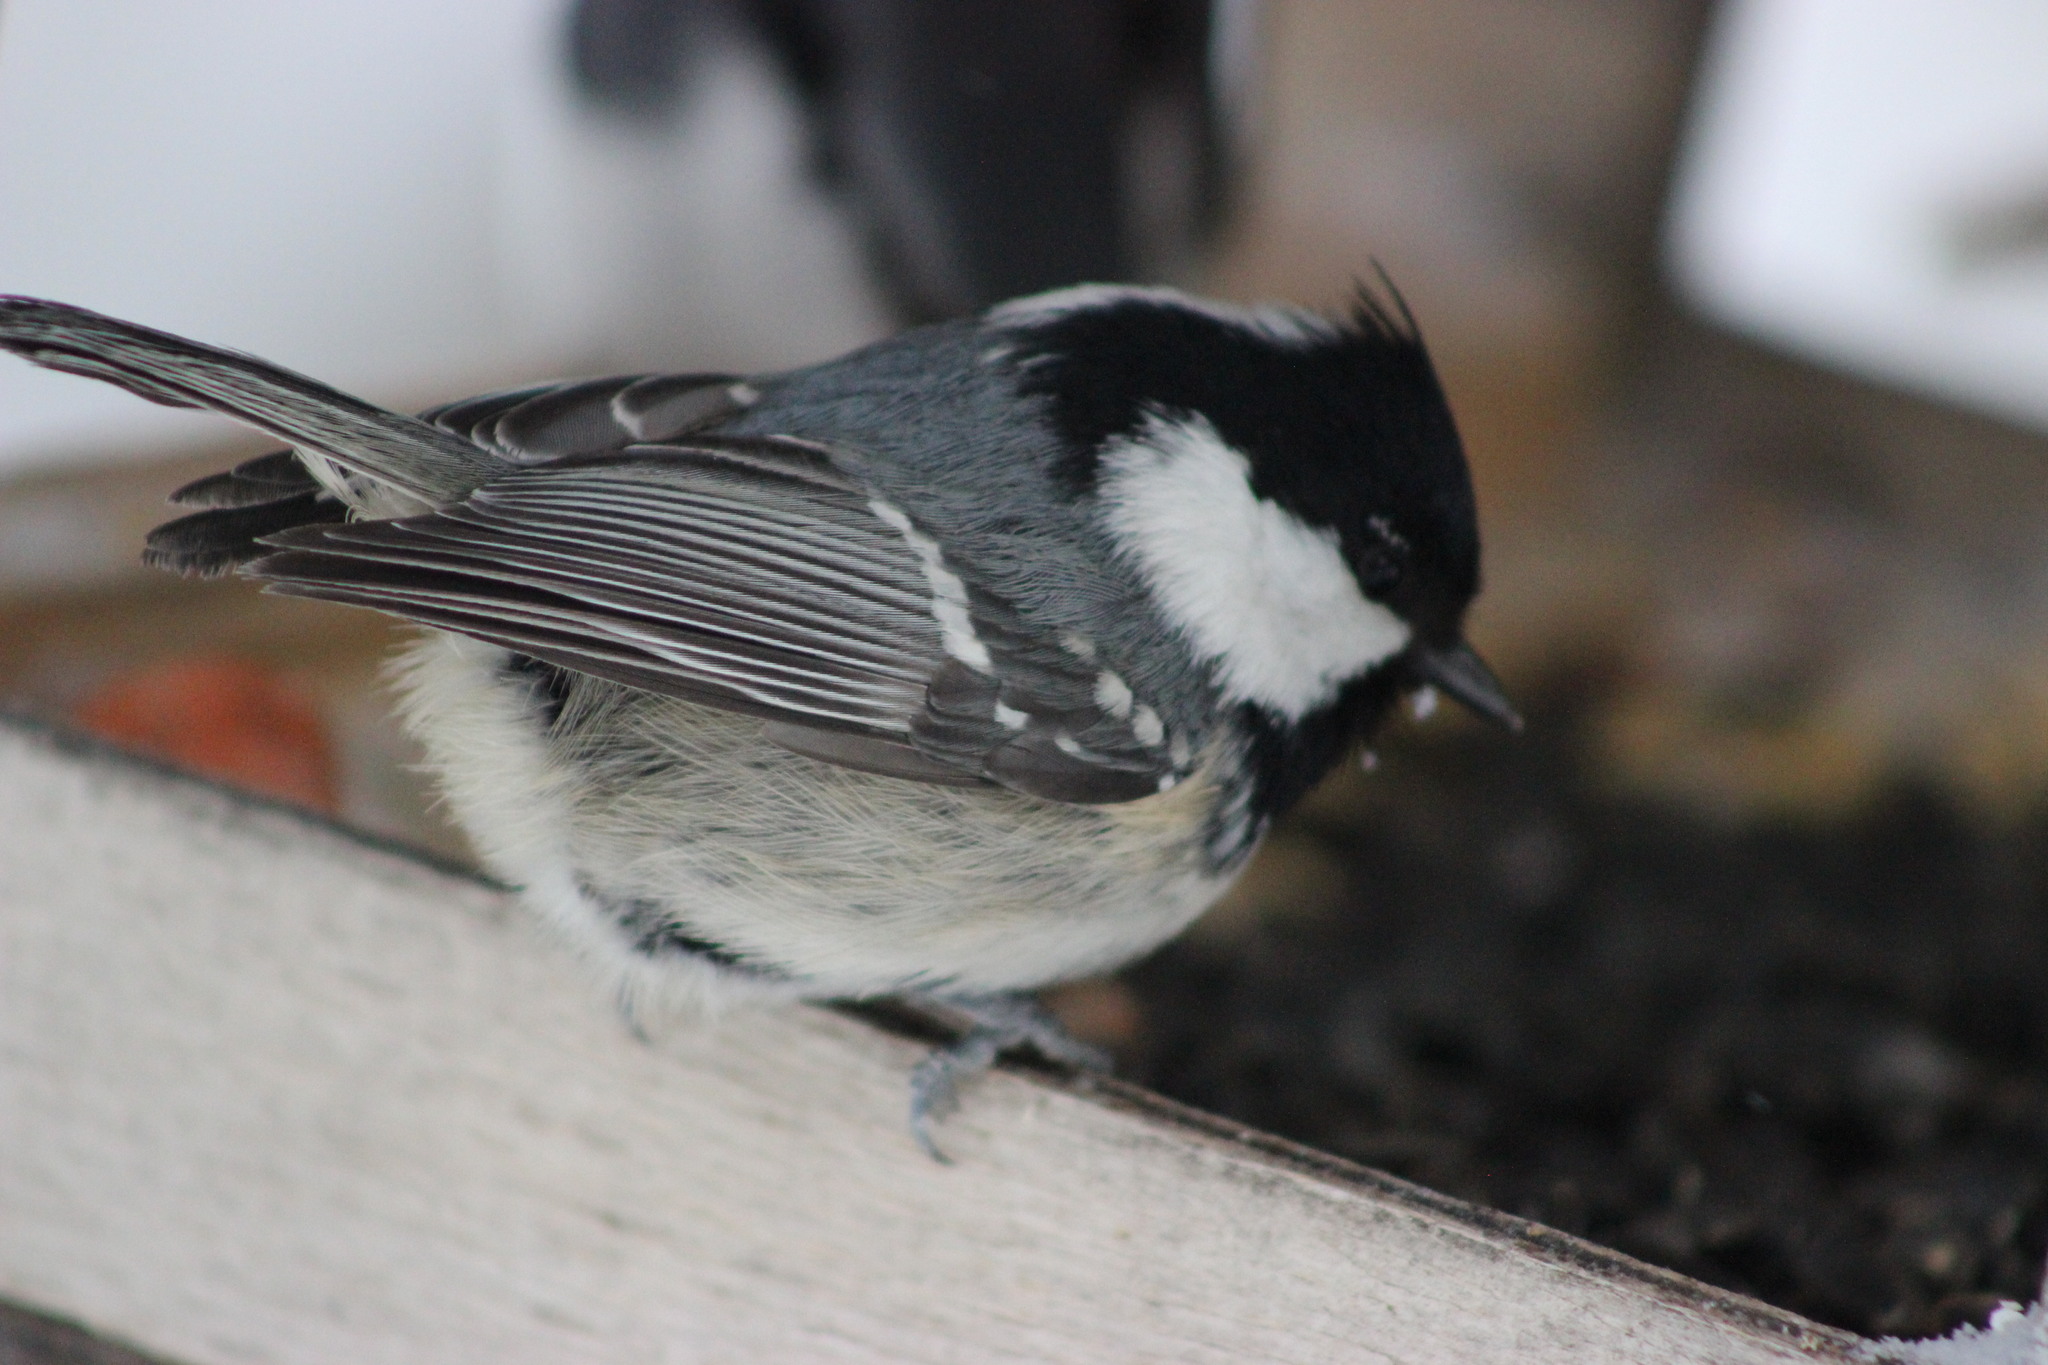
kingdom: Animalia
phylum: Chordata
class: Aves
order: Passeriformes
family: Paridae
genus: Periparus
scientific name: Periparus ater
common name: Coal tit
